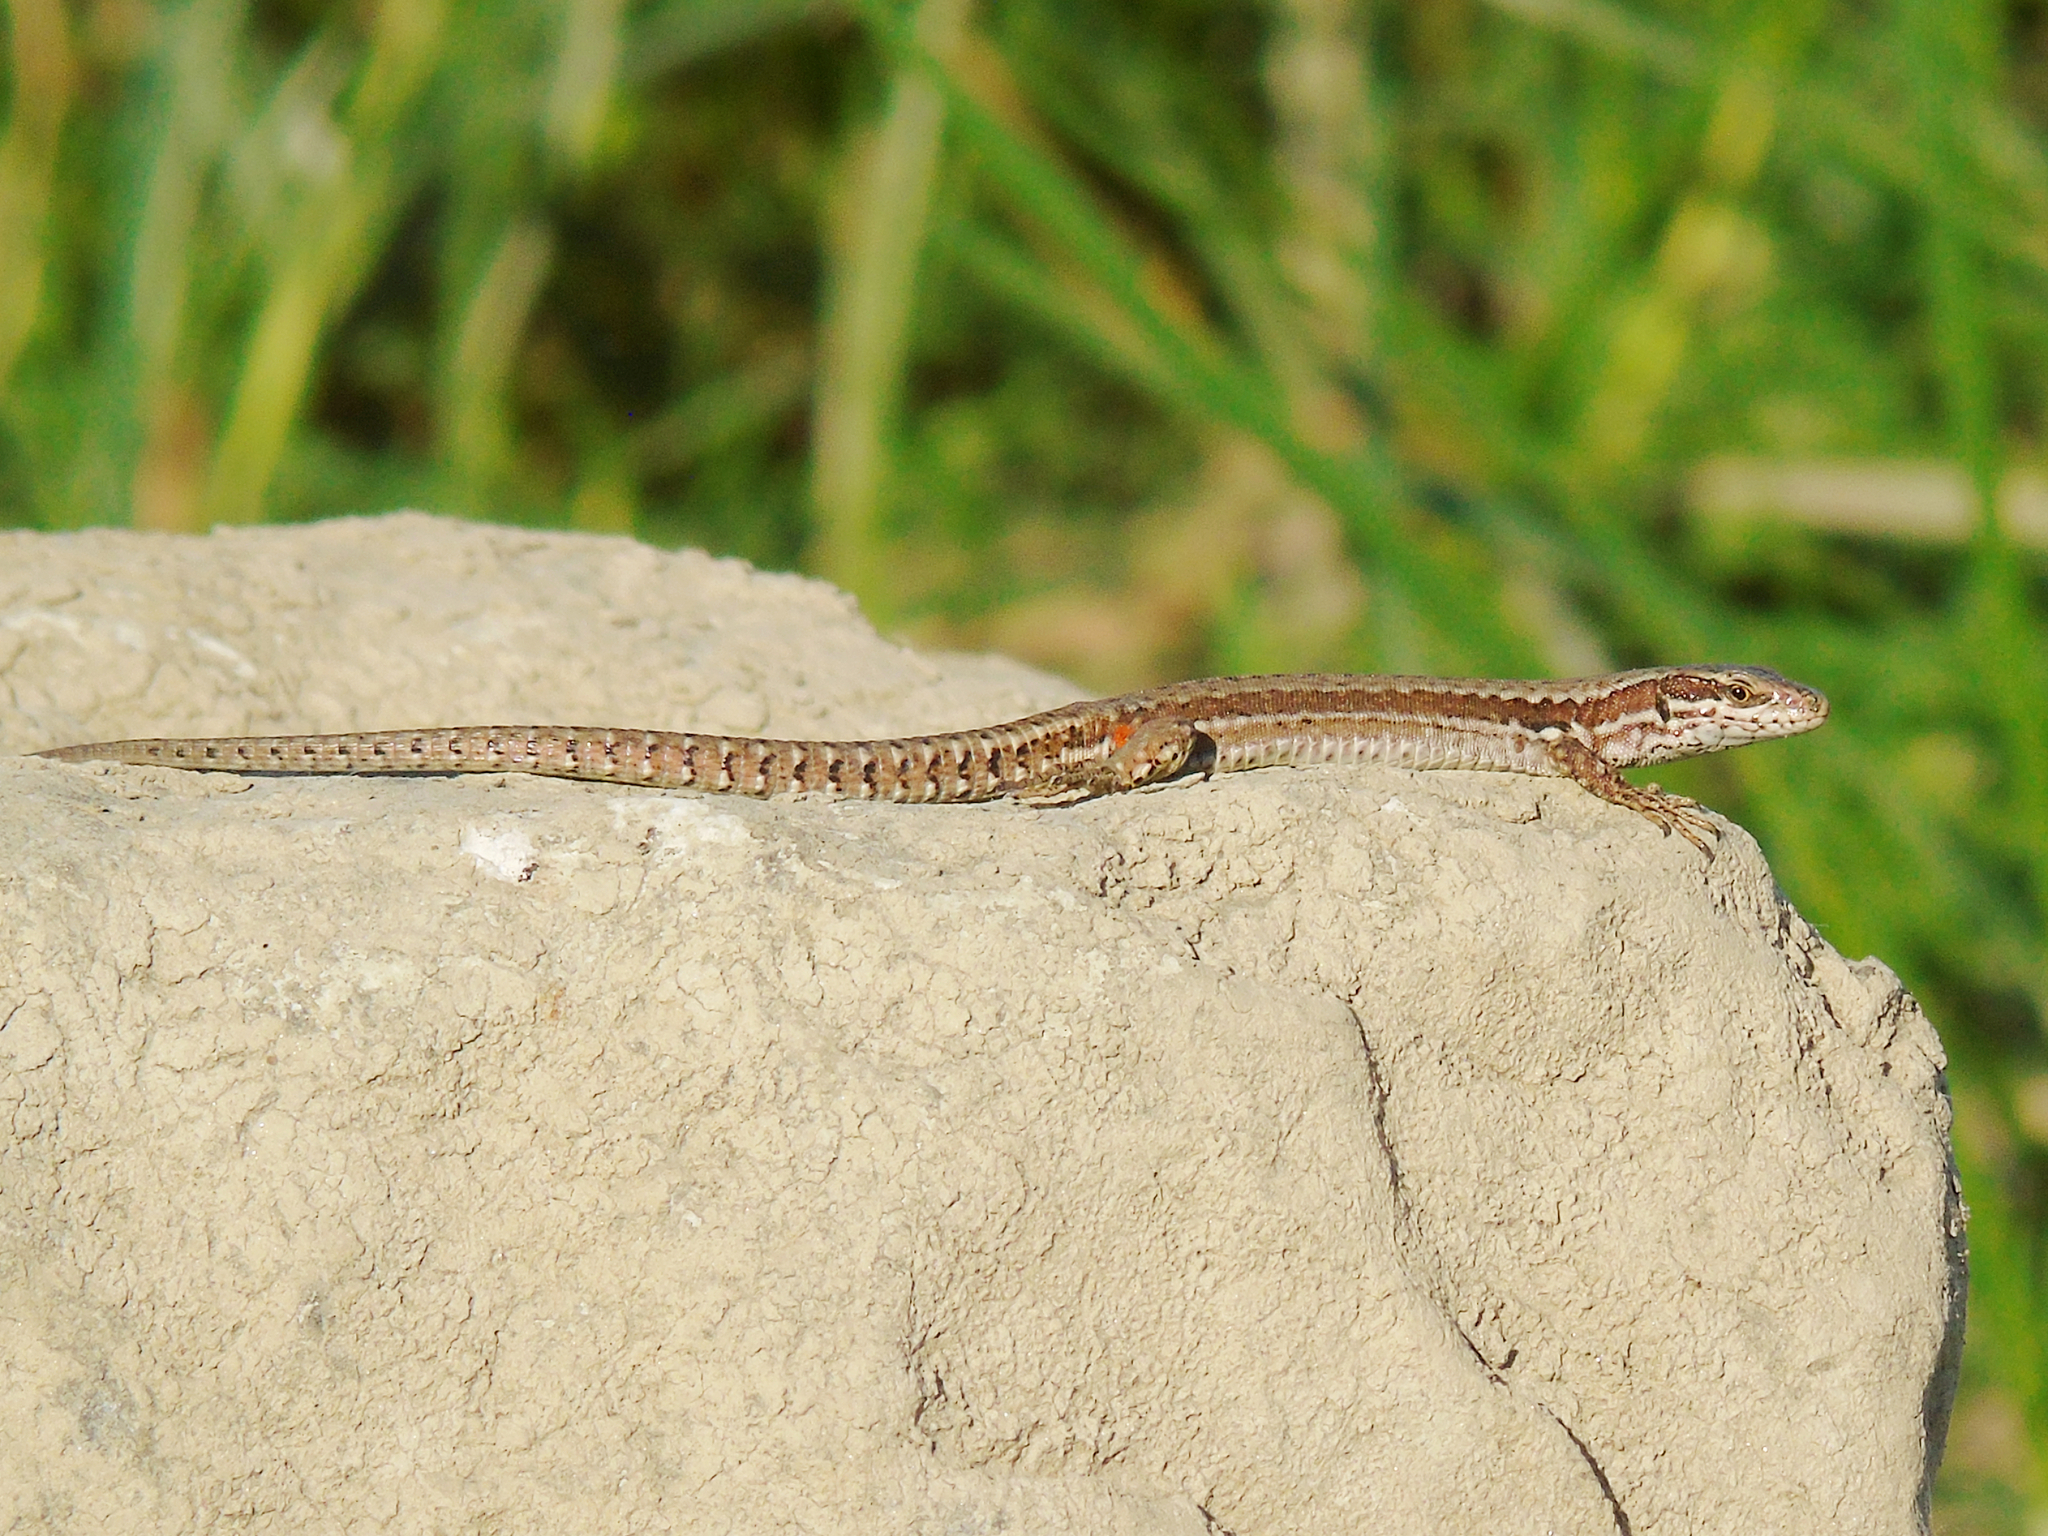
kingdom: Animalia
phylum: Chordata
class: Squamata
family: Lacertidae
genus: Podarcis
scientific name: Podarcis muralis
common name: Common wall lizard
